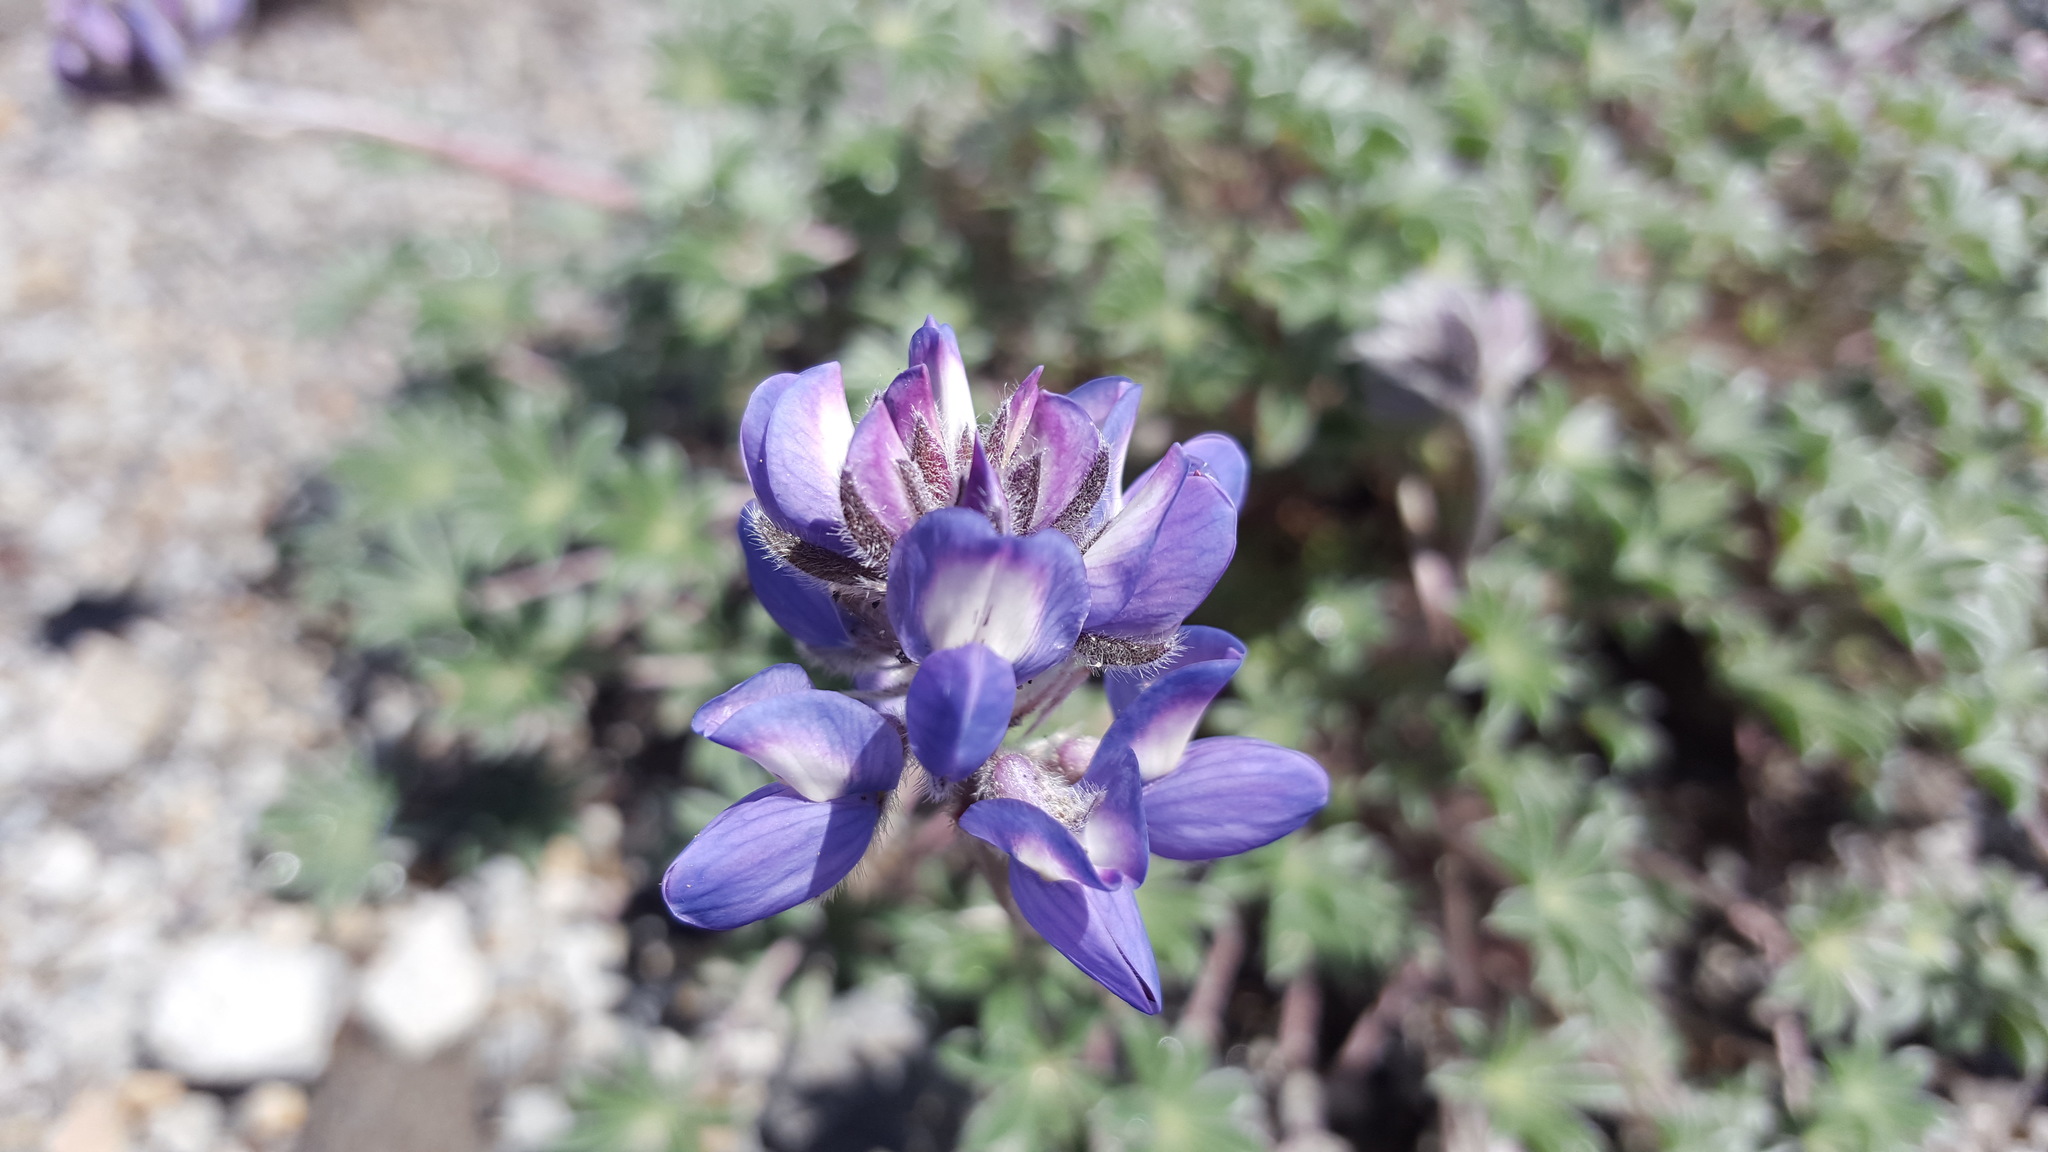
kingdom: Plantae
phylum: Tracheophyta
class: Magnoliopsida
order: Fabales
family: Fabaceae
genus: Lupinus
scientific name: Lupinus lepidus
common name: Prairie lupine
